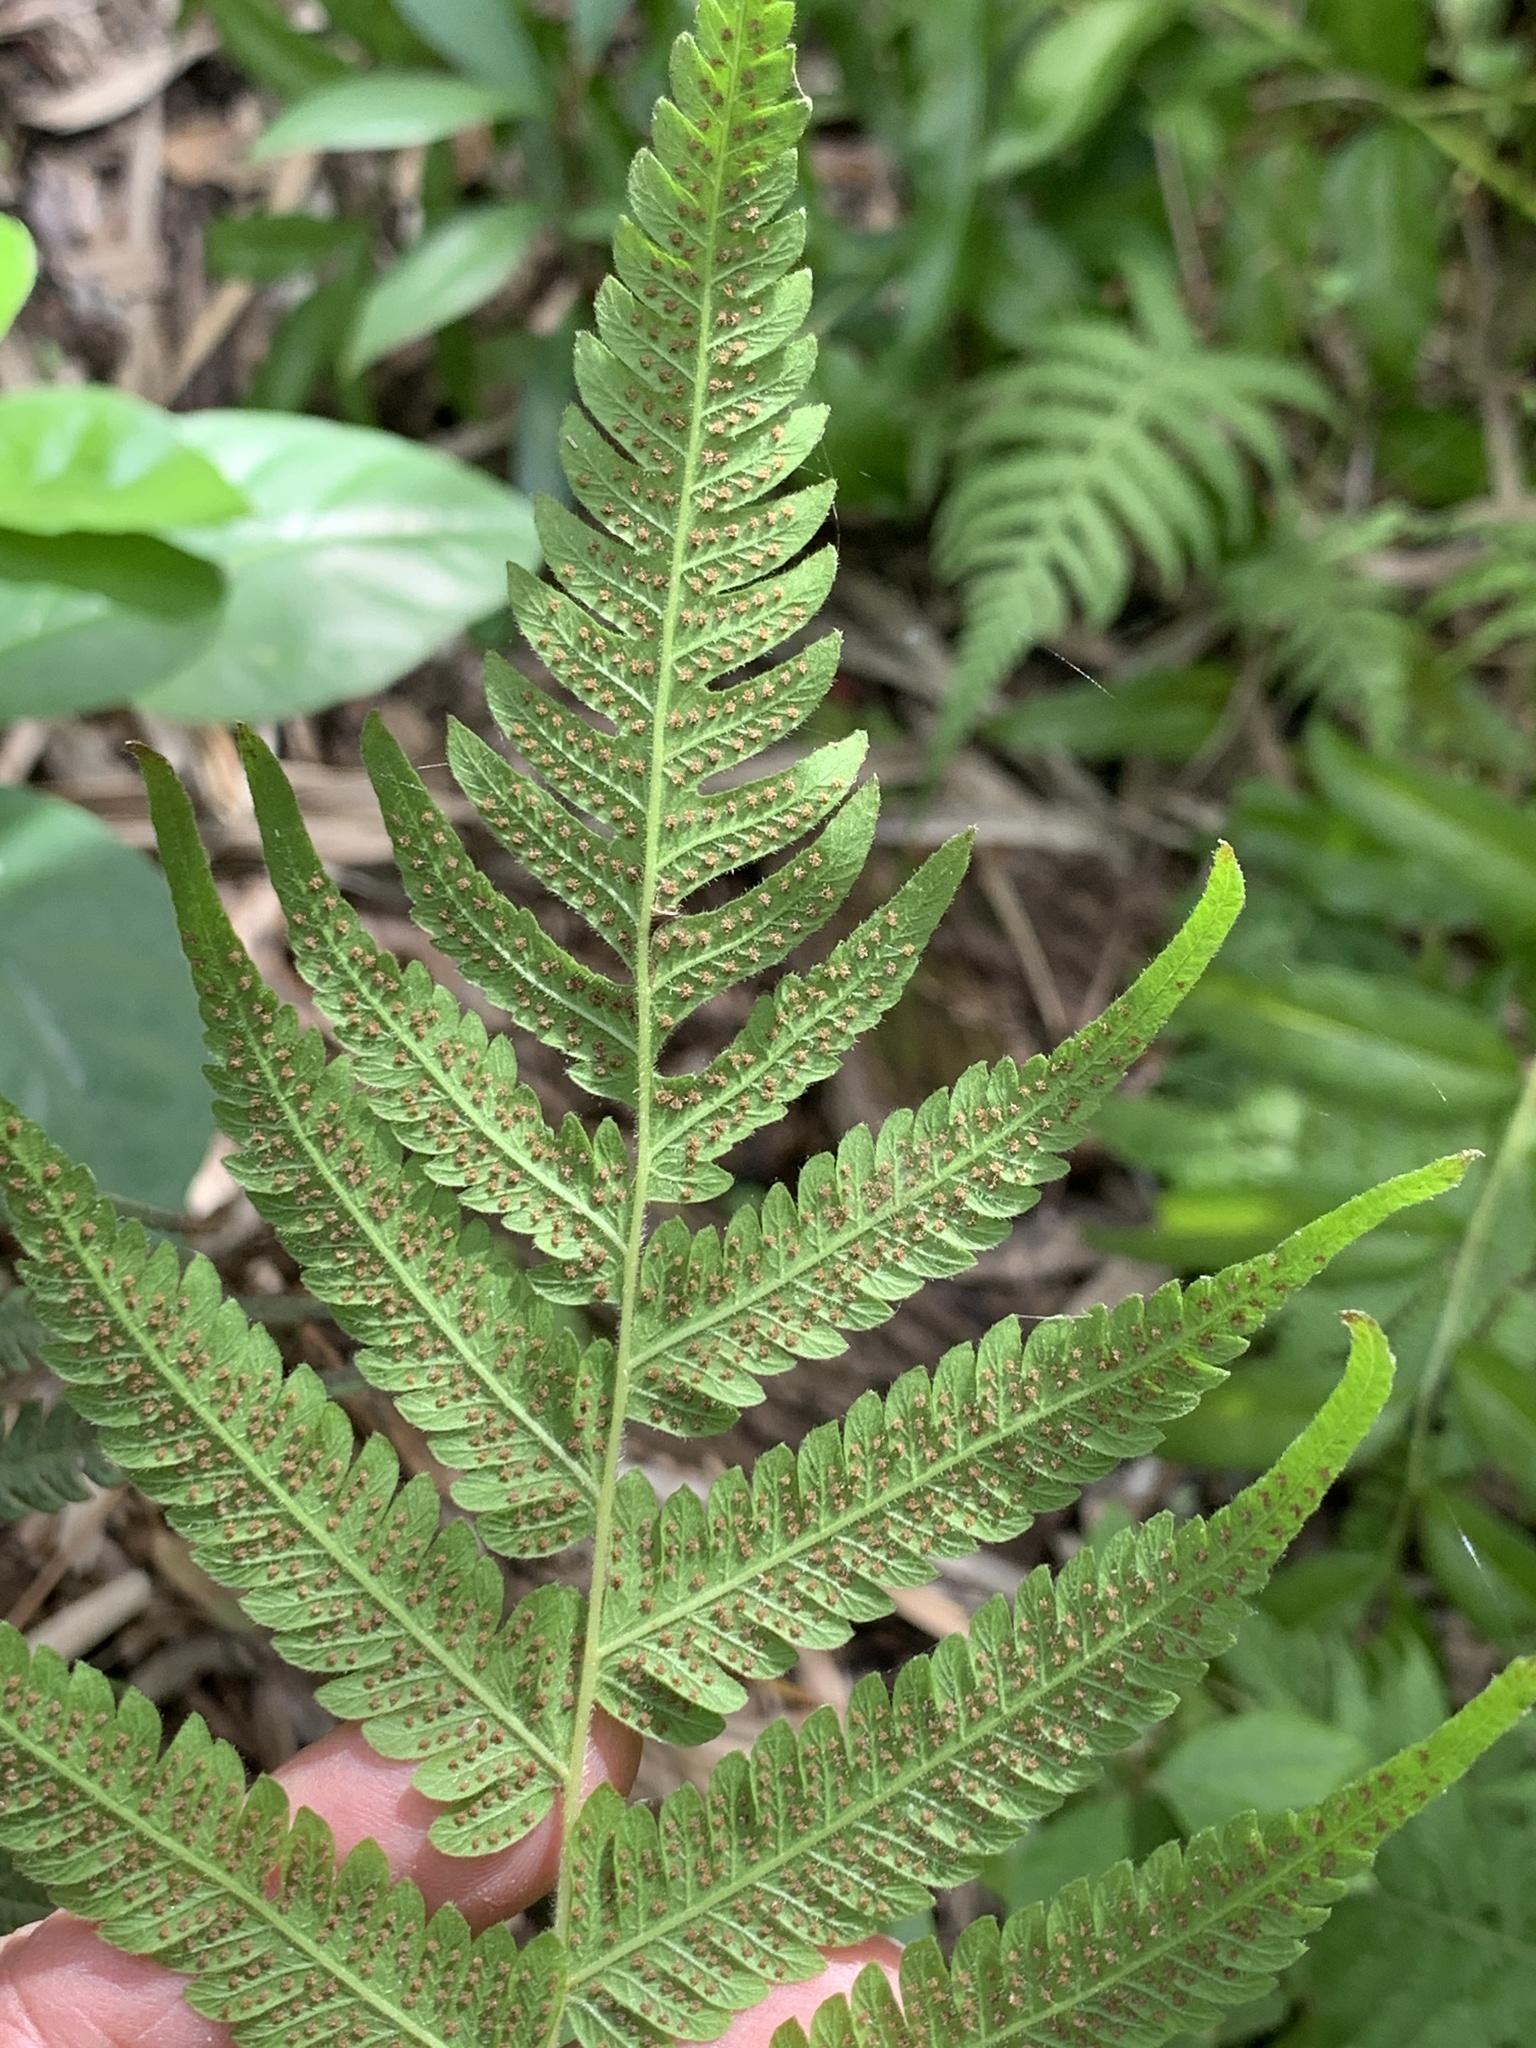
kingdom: Plantae
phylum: Tracheophyta
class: Polypodiopsida
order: Polypodiales
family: Thelypteridaceae
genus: Pelazoneuron
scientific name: Pelazoneuron kunthii
